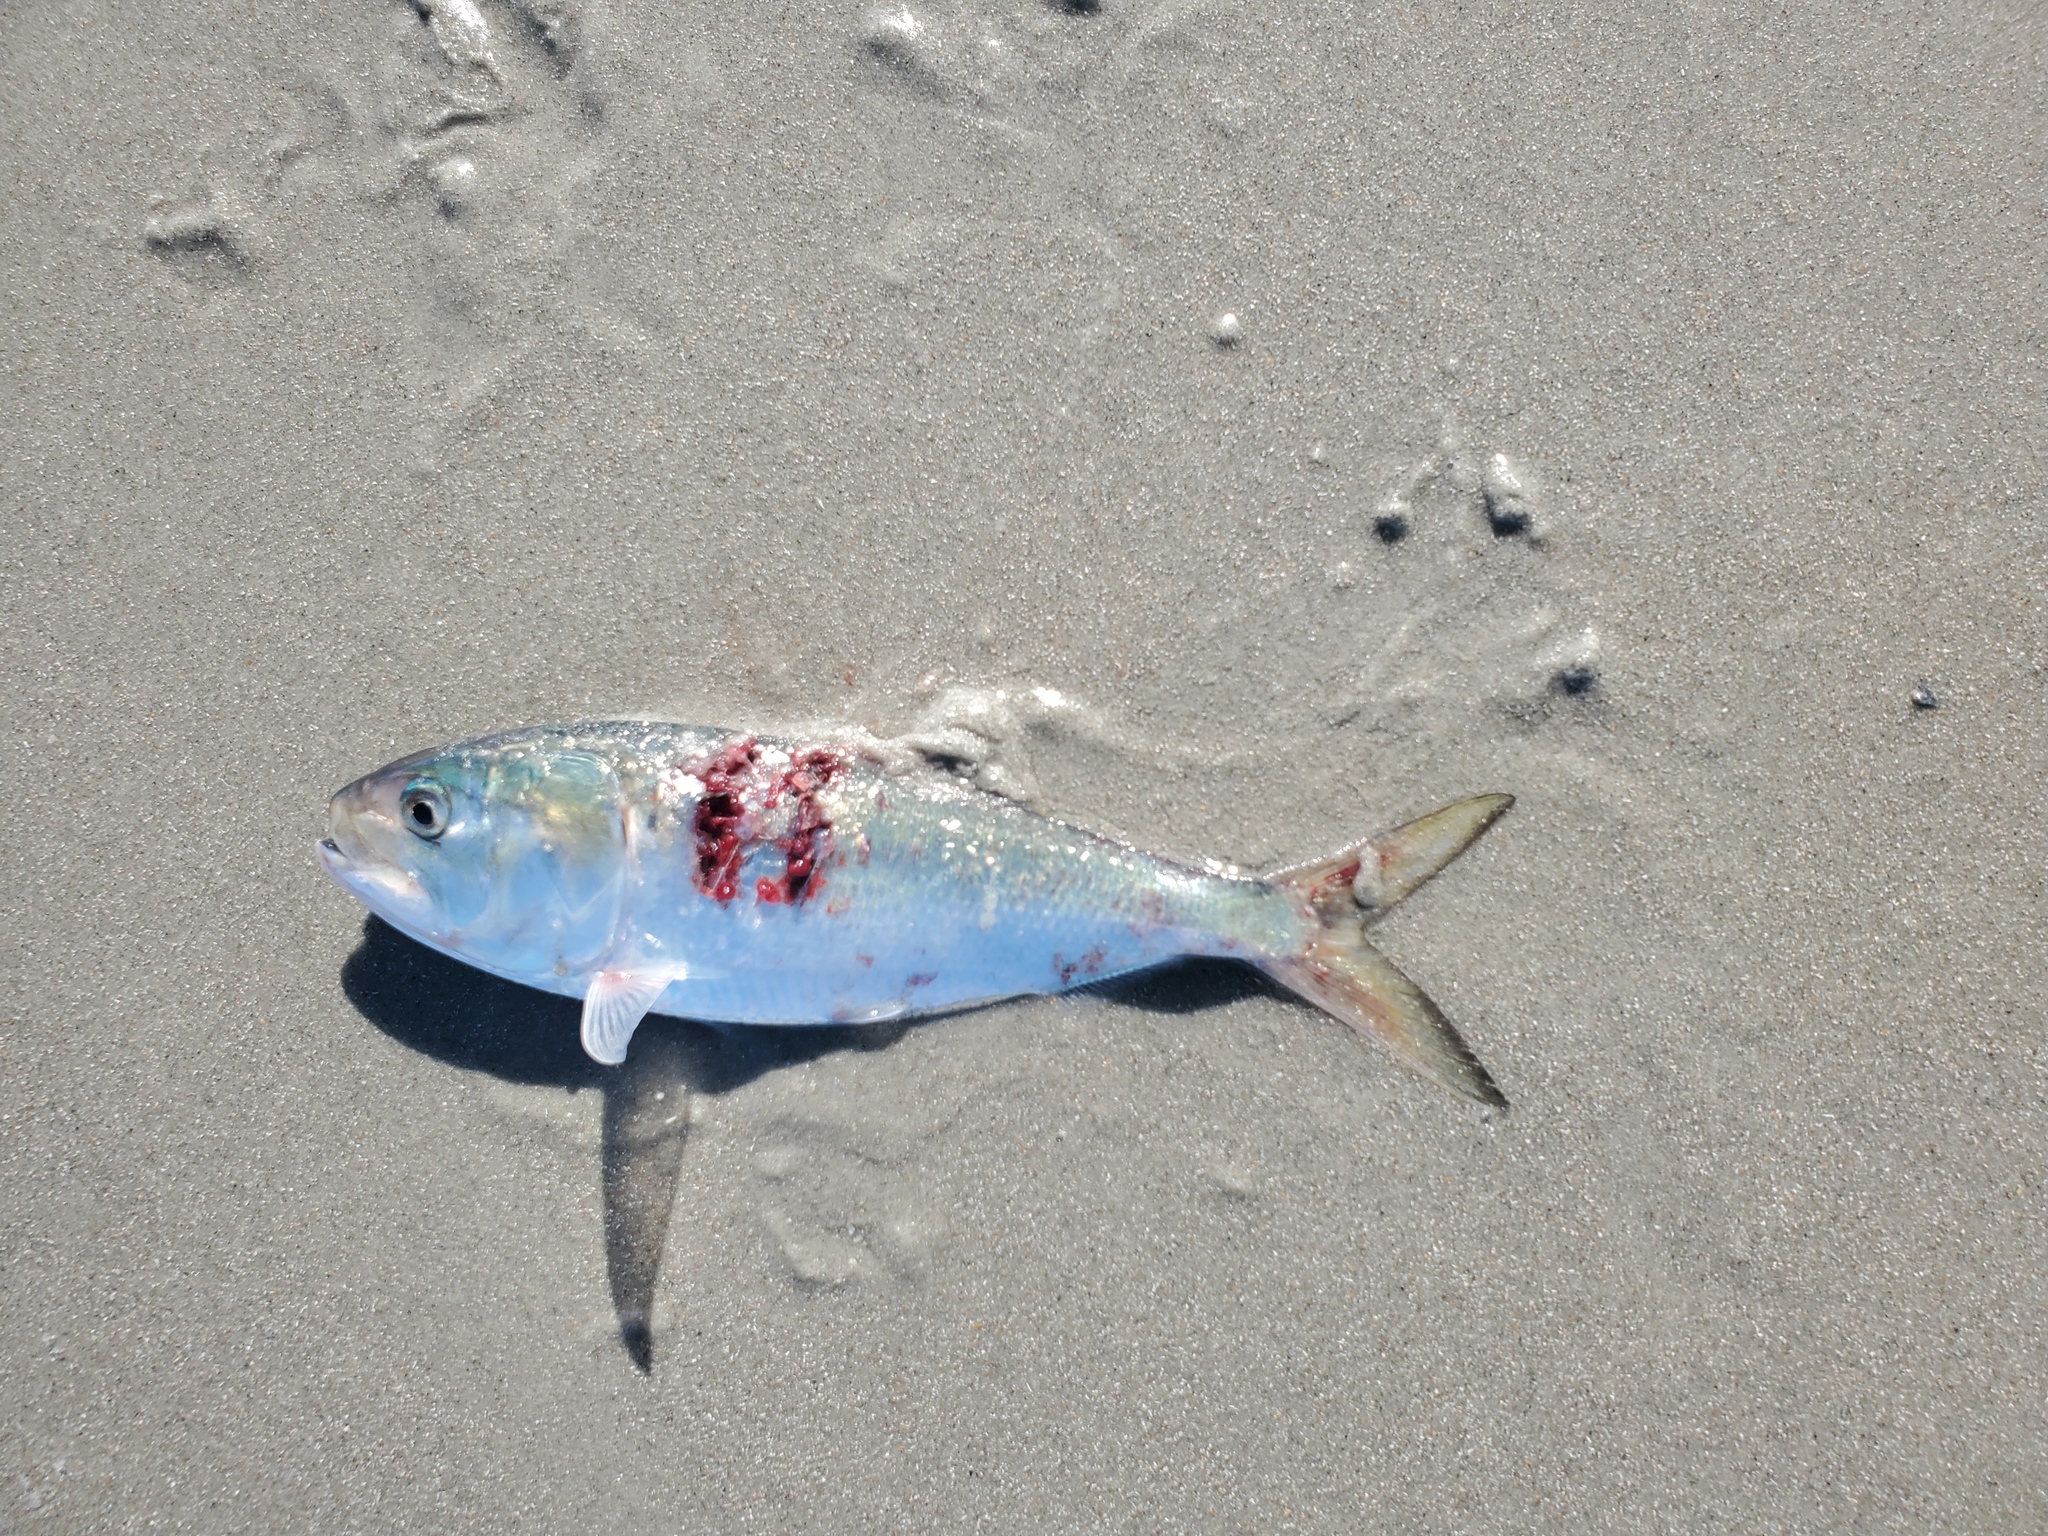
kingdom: Animalia
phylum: Chordata
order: Clupeiformes
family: Clupeidae
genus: Brevoortia
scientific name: Brevoortia tyrannus
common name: Atlantic menhaden
